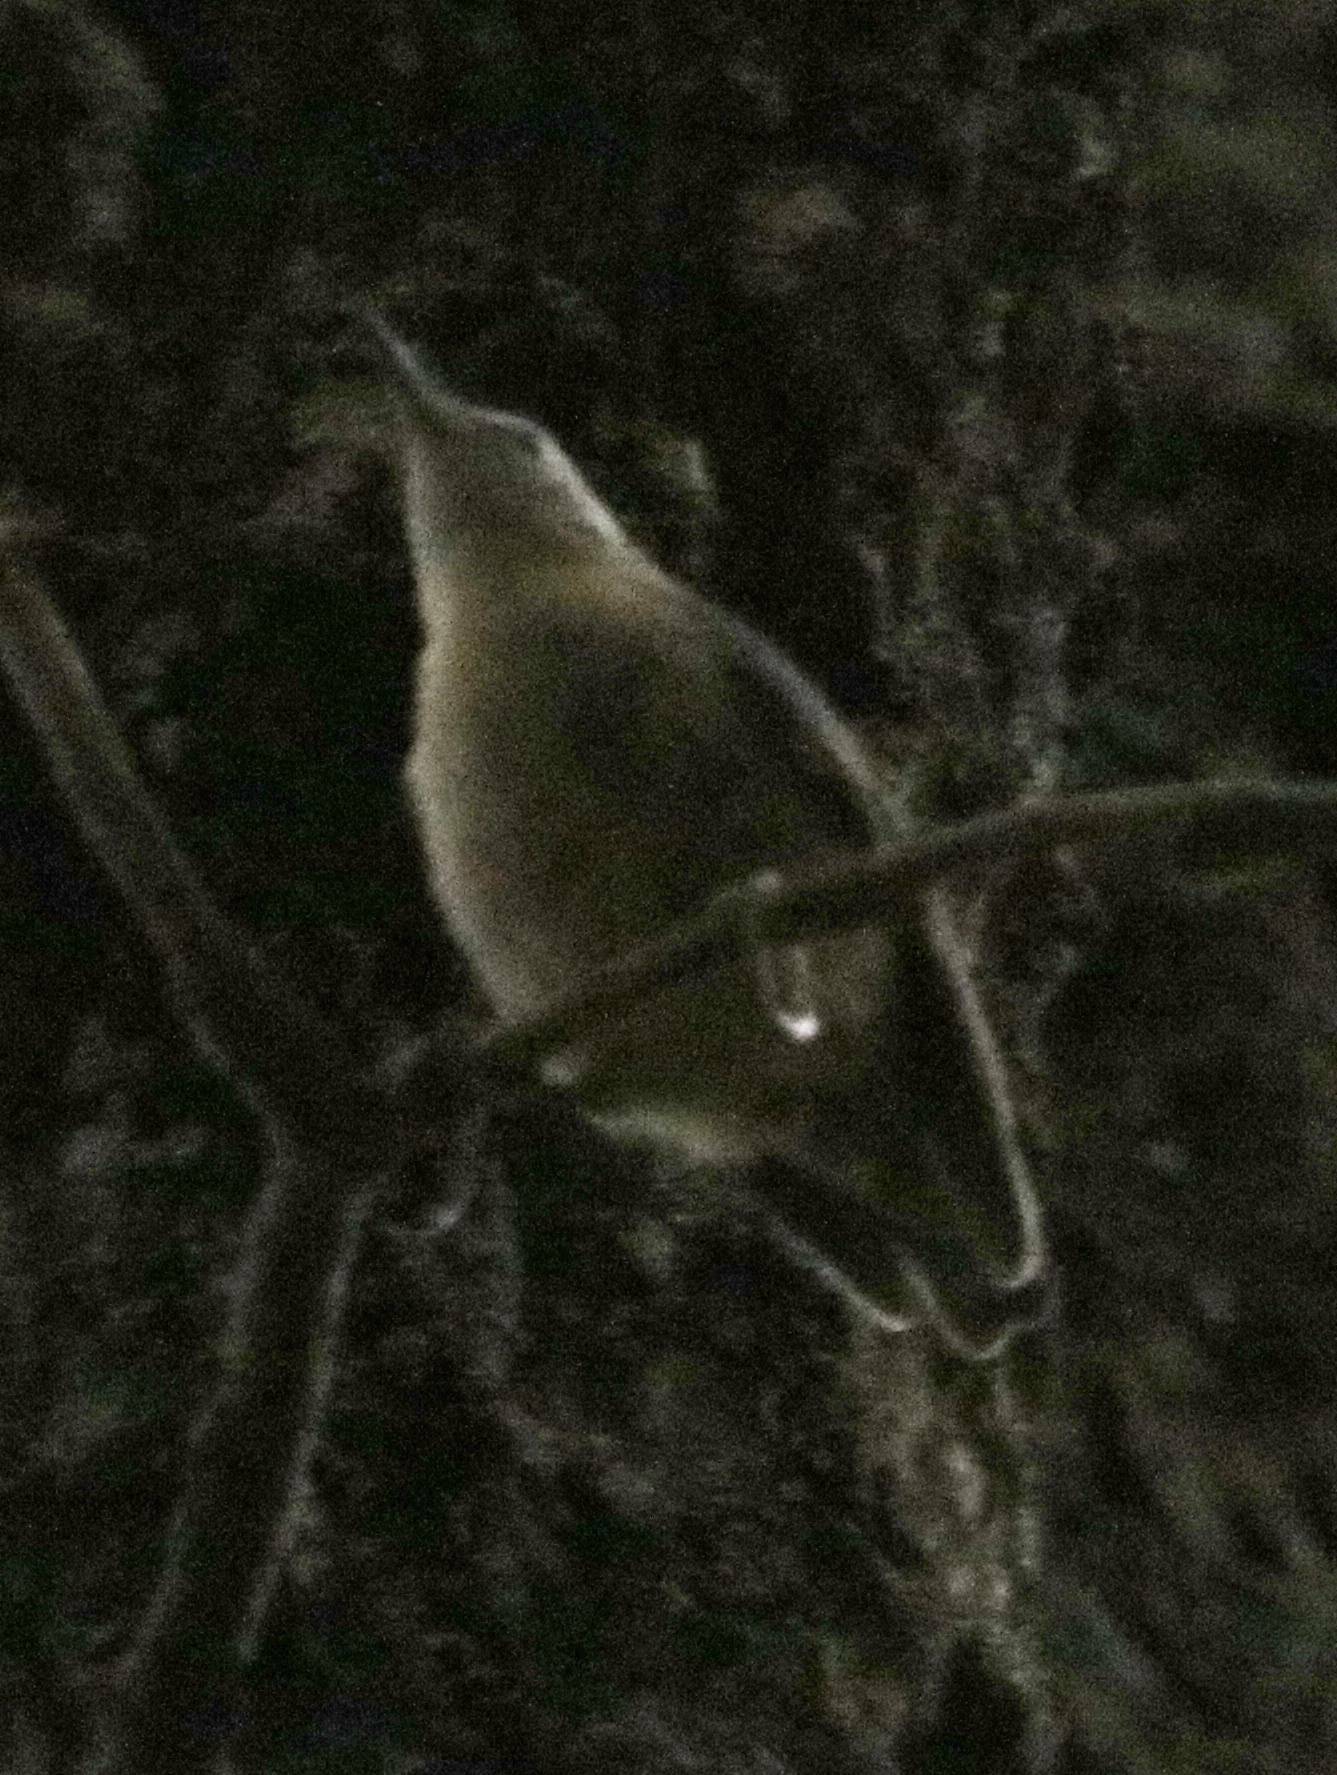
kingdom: Animalia
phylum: Chordata
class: Aves
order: Passeriformes
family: Sittidae
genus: Sitta
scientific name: Sitta ledanti
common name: Algerian nuthatch
